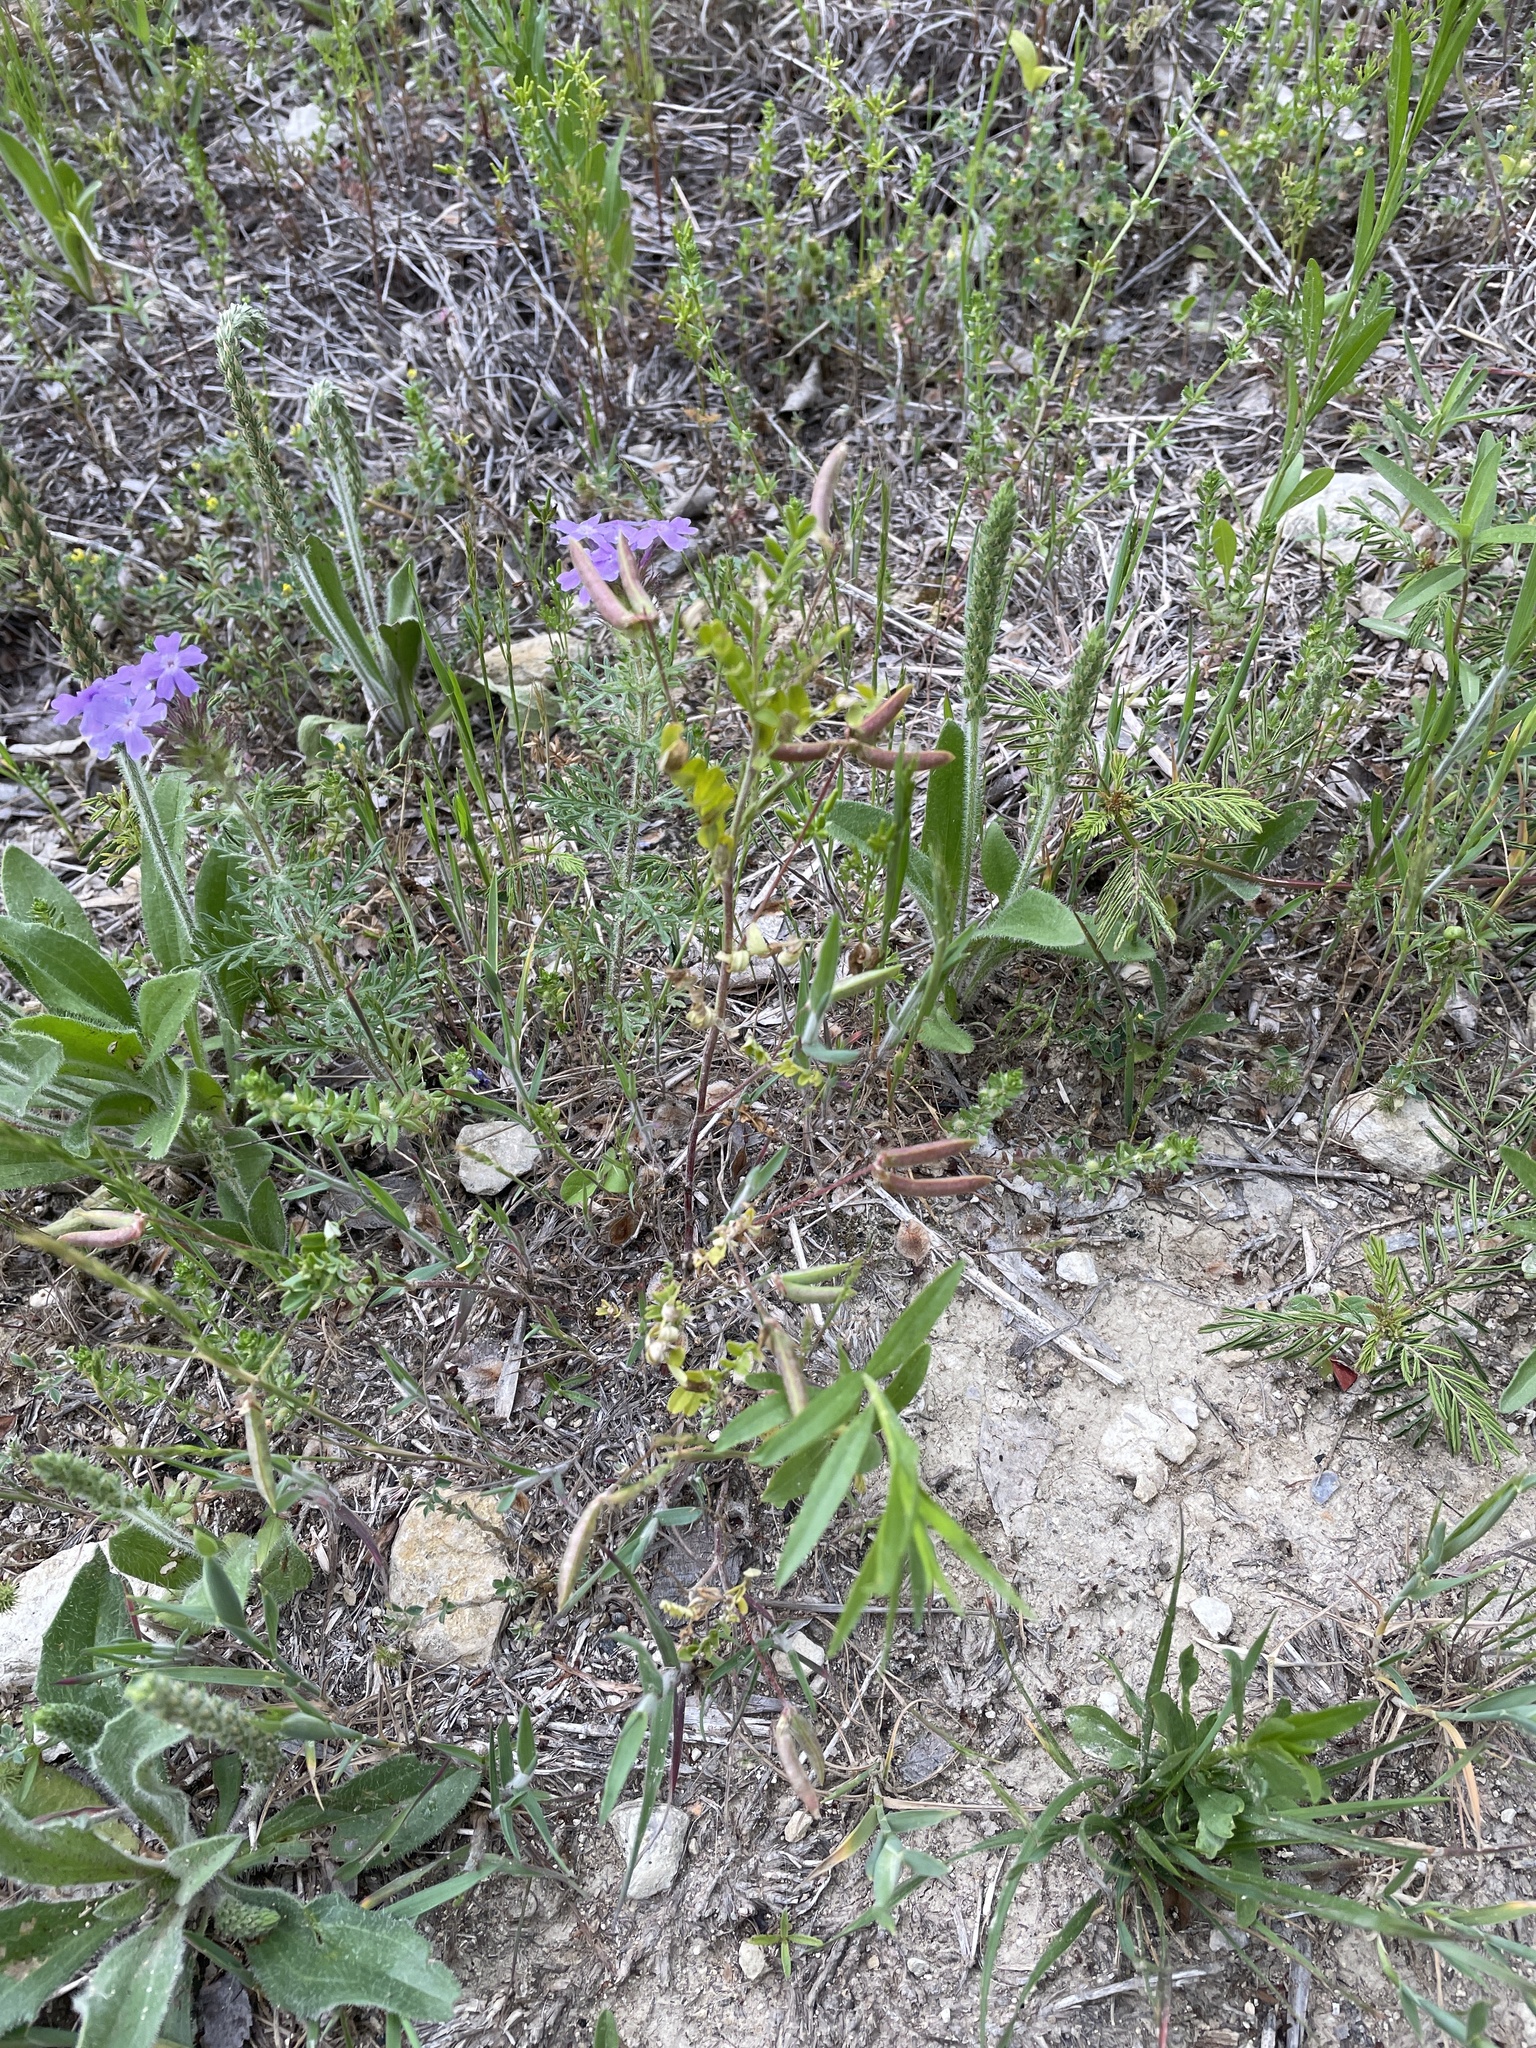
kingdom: Plantae
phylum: Tracheophyta
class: Magnoliopsida
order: Fabales
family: Fabaceae
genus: Astragalus
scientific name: Astragalus nuttallianus
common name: Smallflowered milkvetch
